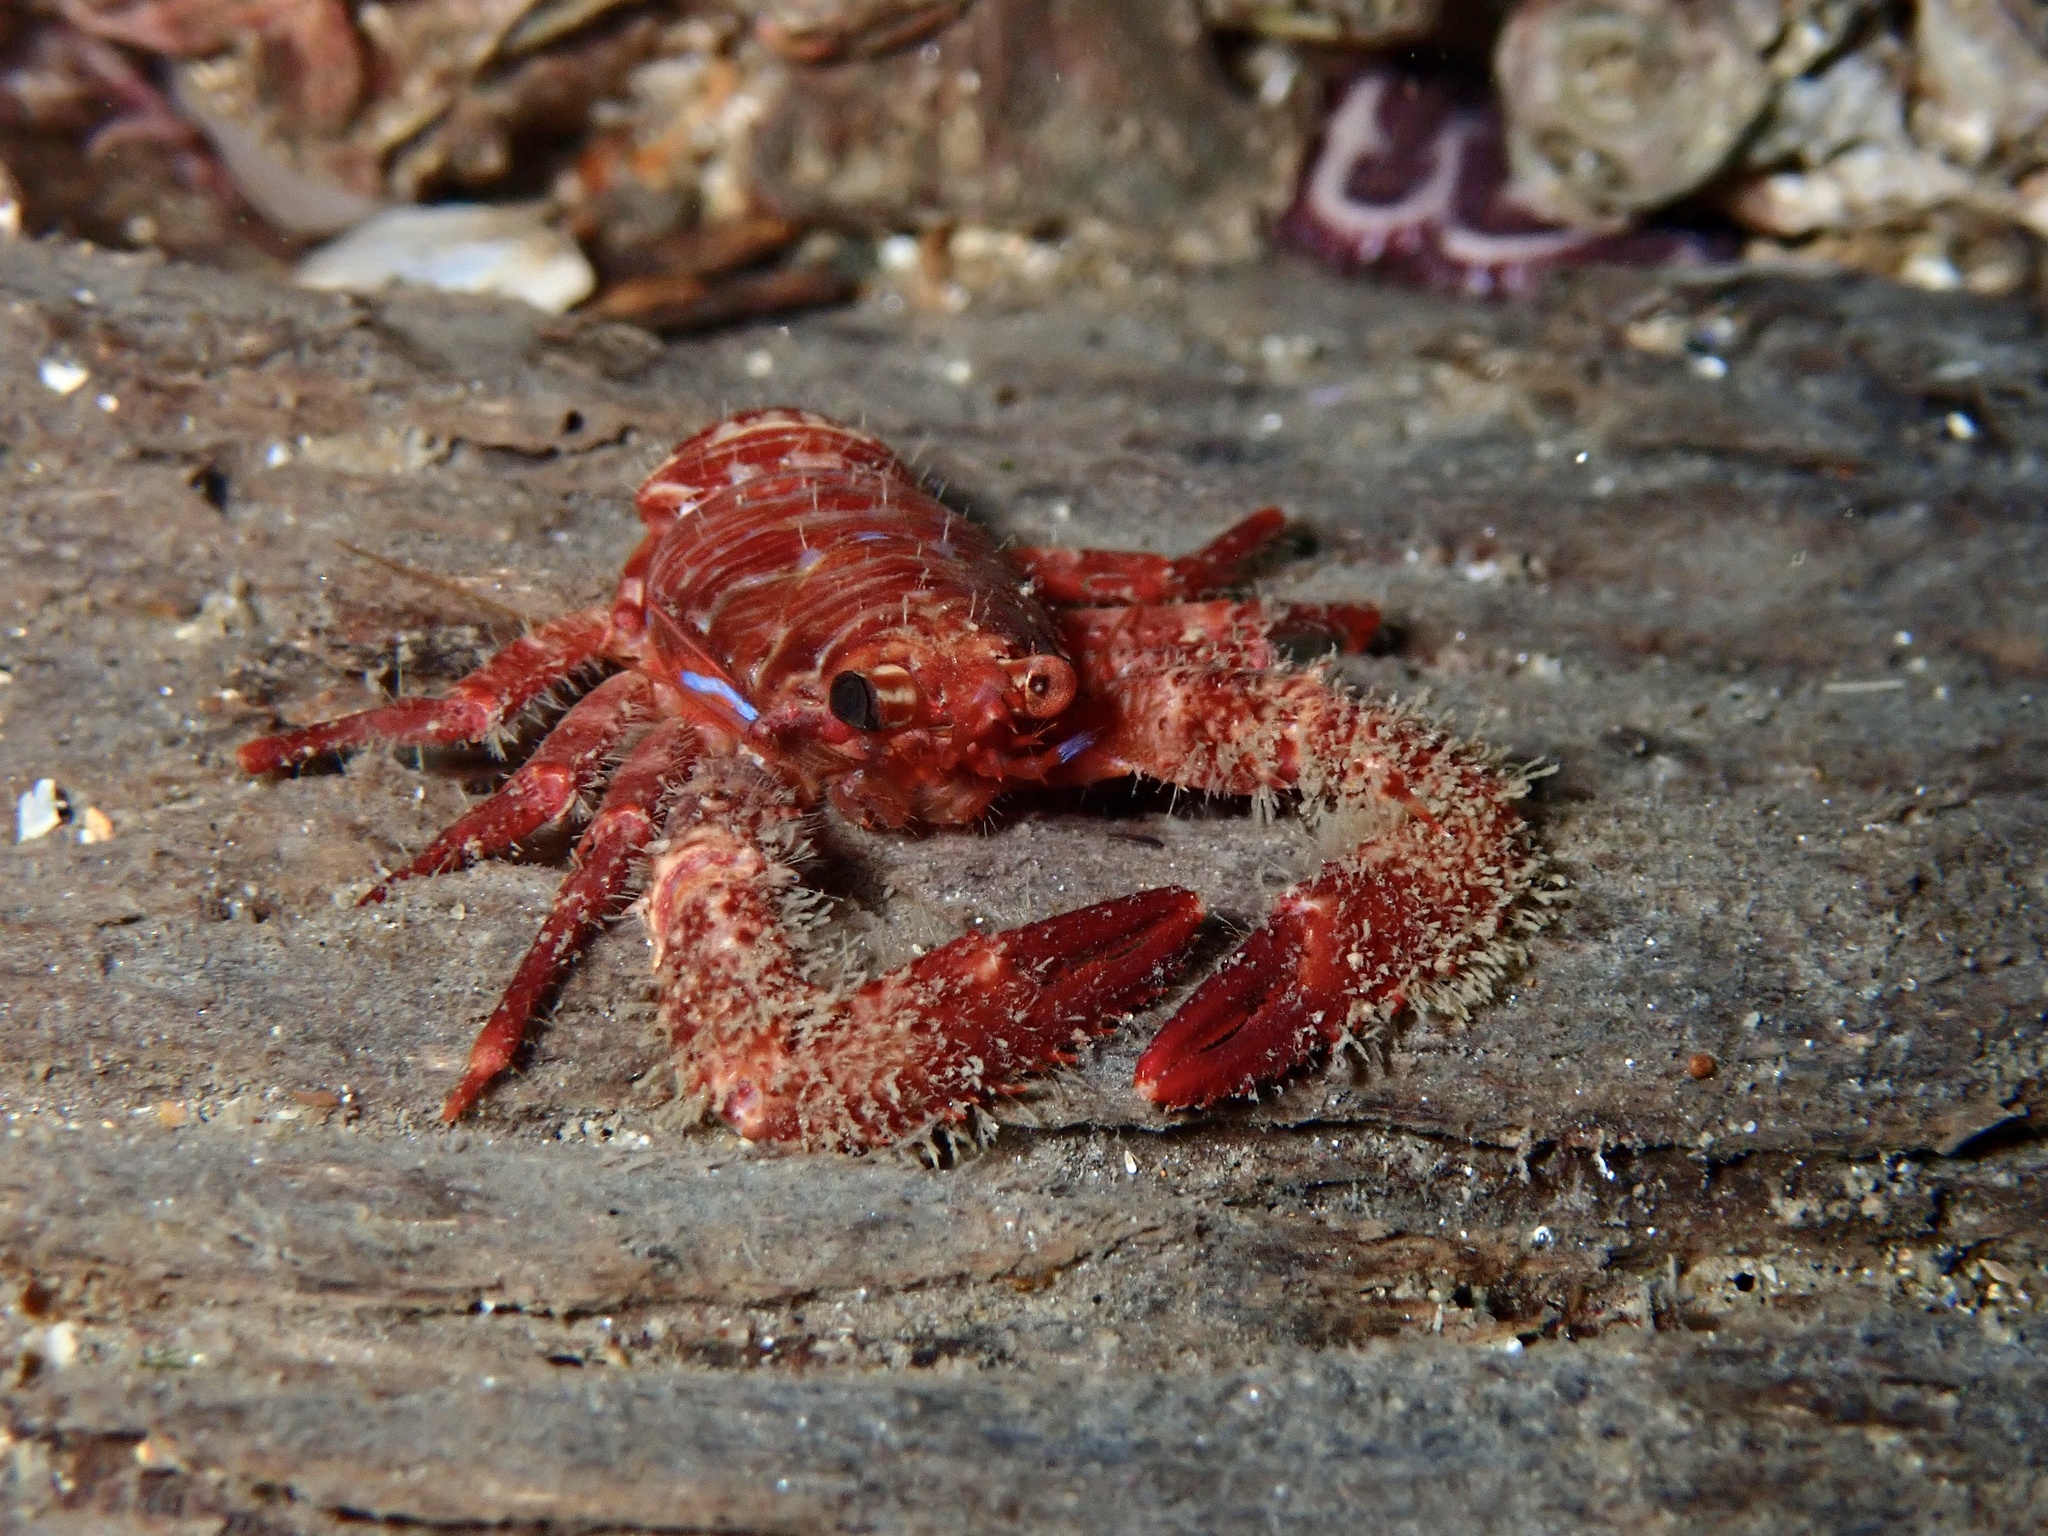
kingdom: Animalia
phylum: Arthropoda
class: Malacostraca
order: Decapoda
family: Galatheidae
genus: Galathea
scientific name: Galathea nexa
